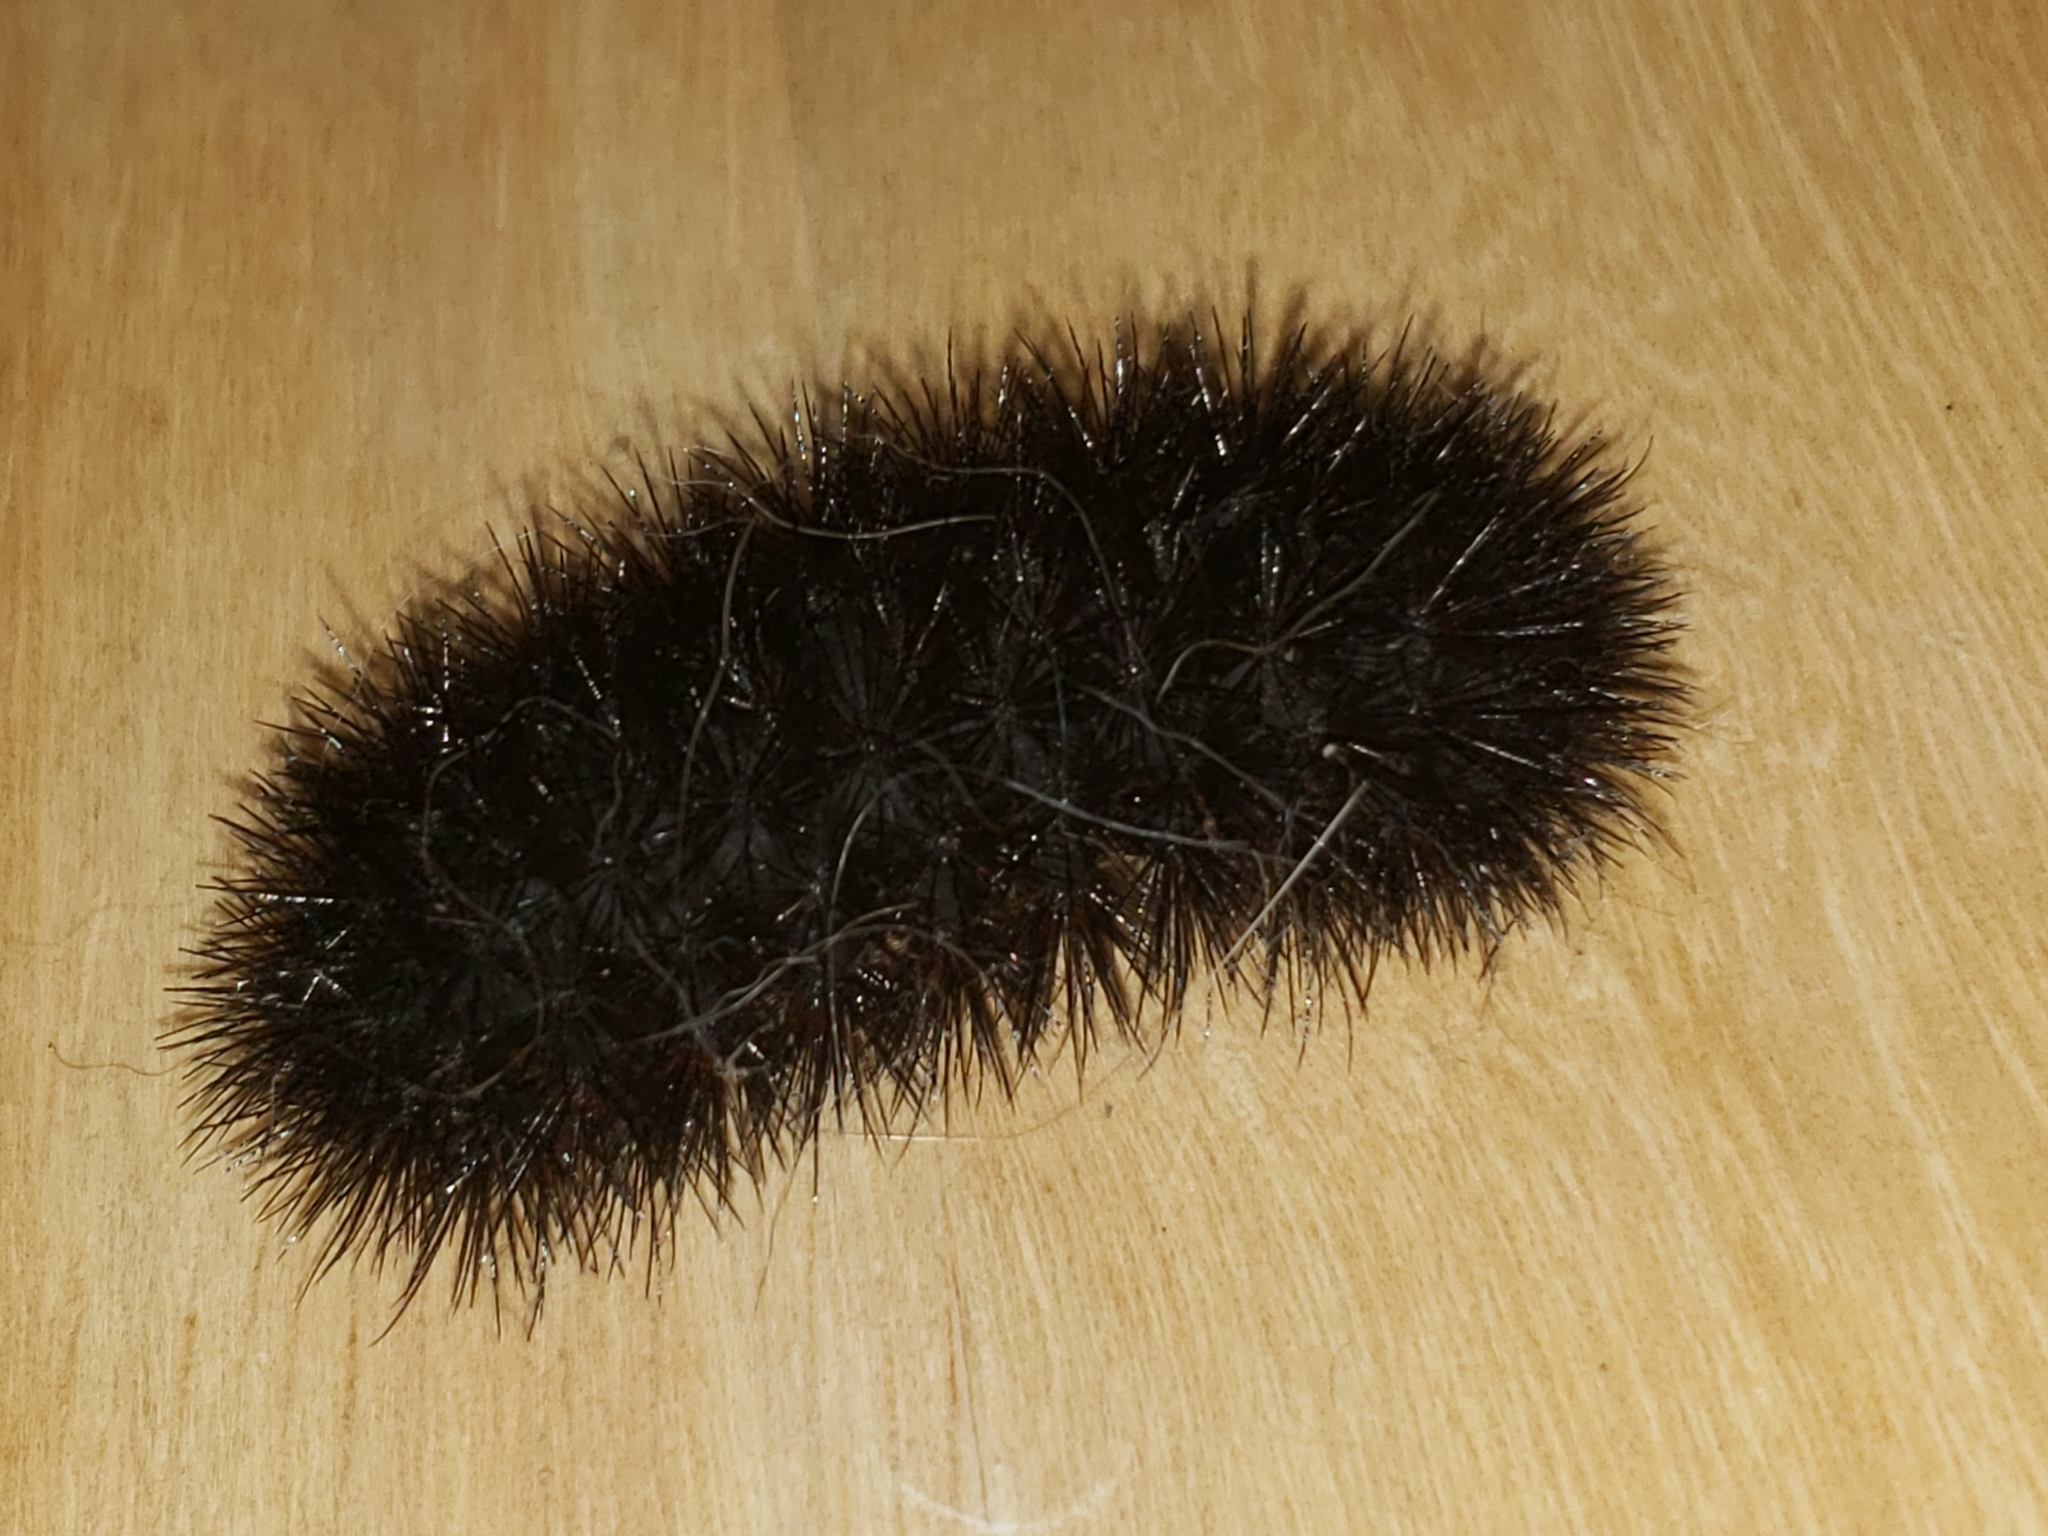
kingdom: Animalia
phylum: Arthropoda
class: Insecta
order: Lepidoptera
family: Erebidae
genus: Hypercompe
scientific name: Hypercompe scribonia
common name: Giant leopard moth
